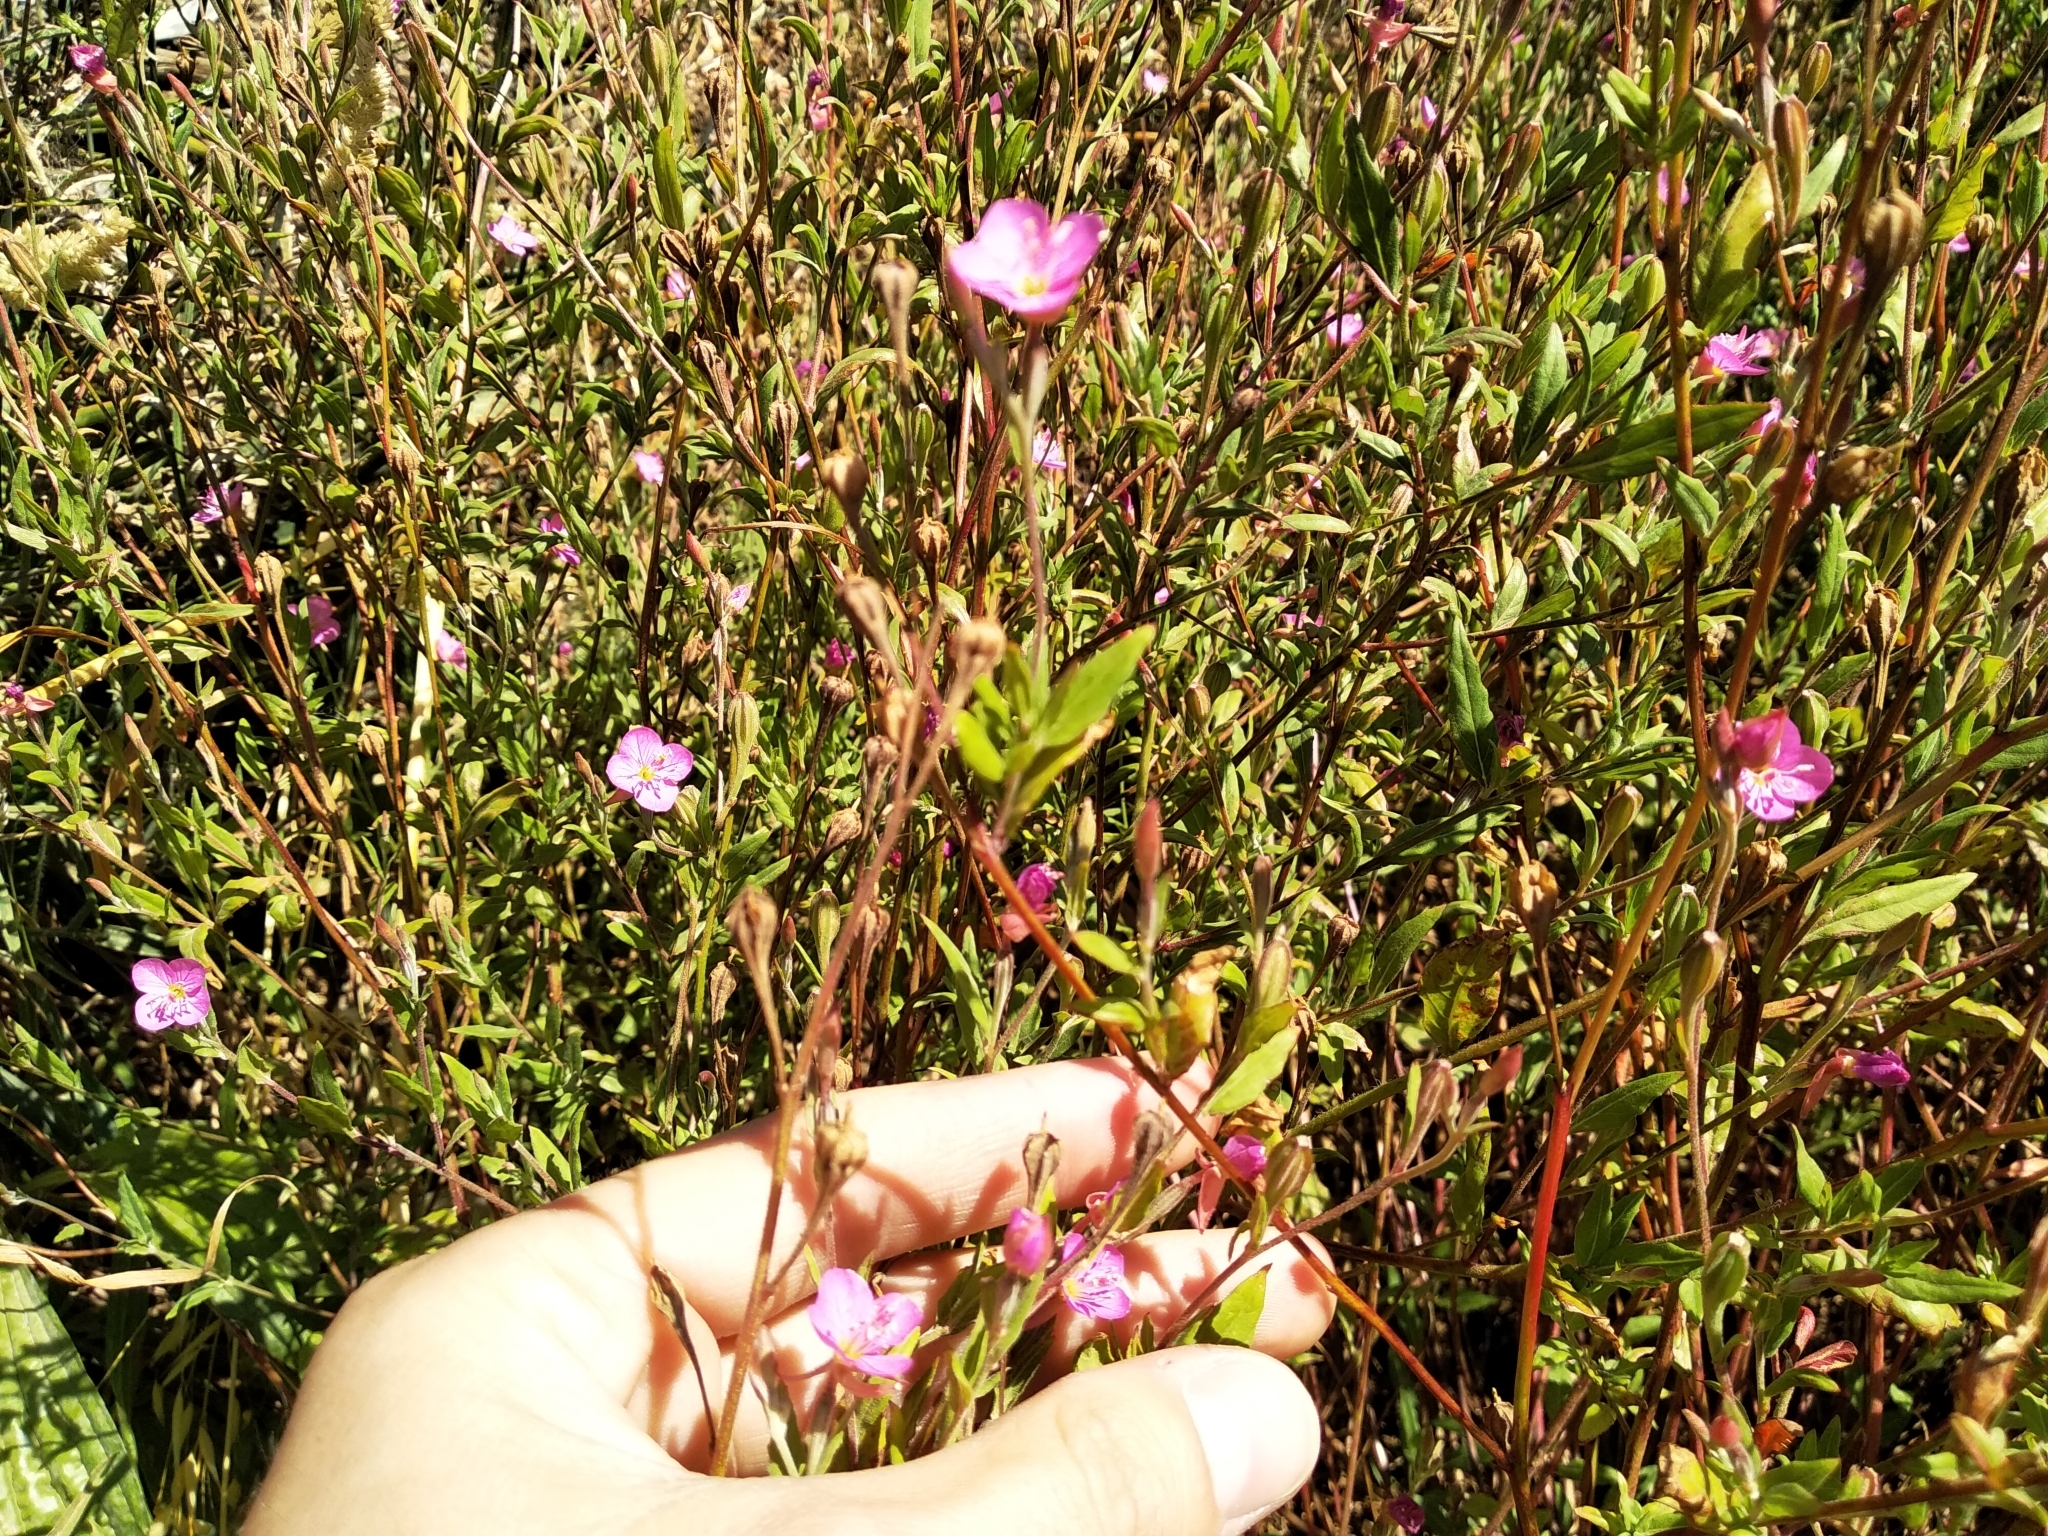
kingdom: Plantae
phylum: Tracheophyta
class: Magnoliopsida
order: Myrtales
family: Onagraceae
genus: Oenothera
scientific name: Oenothera rosea
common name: Rosy evening-primrose
